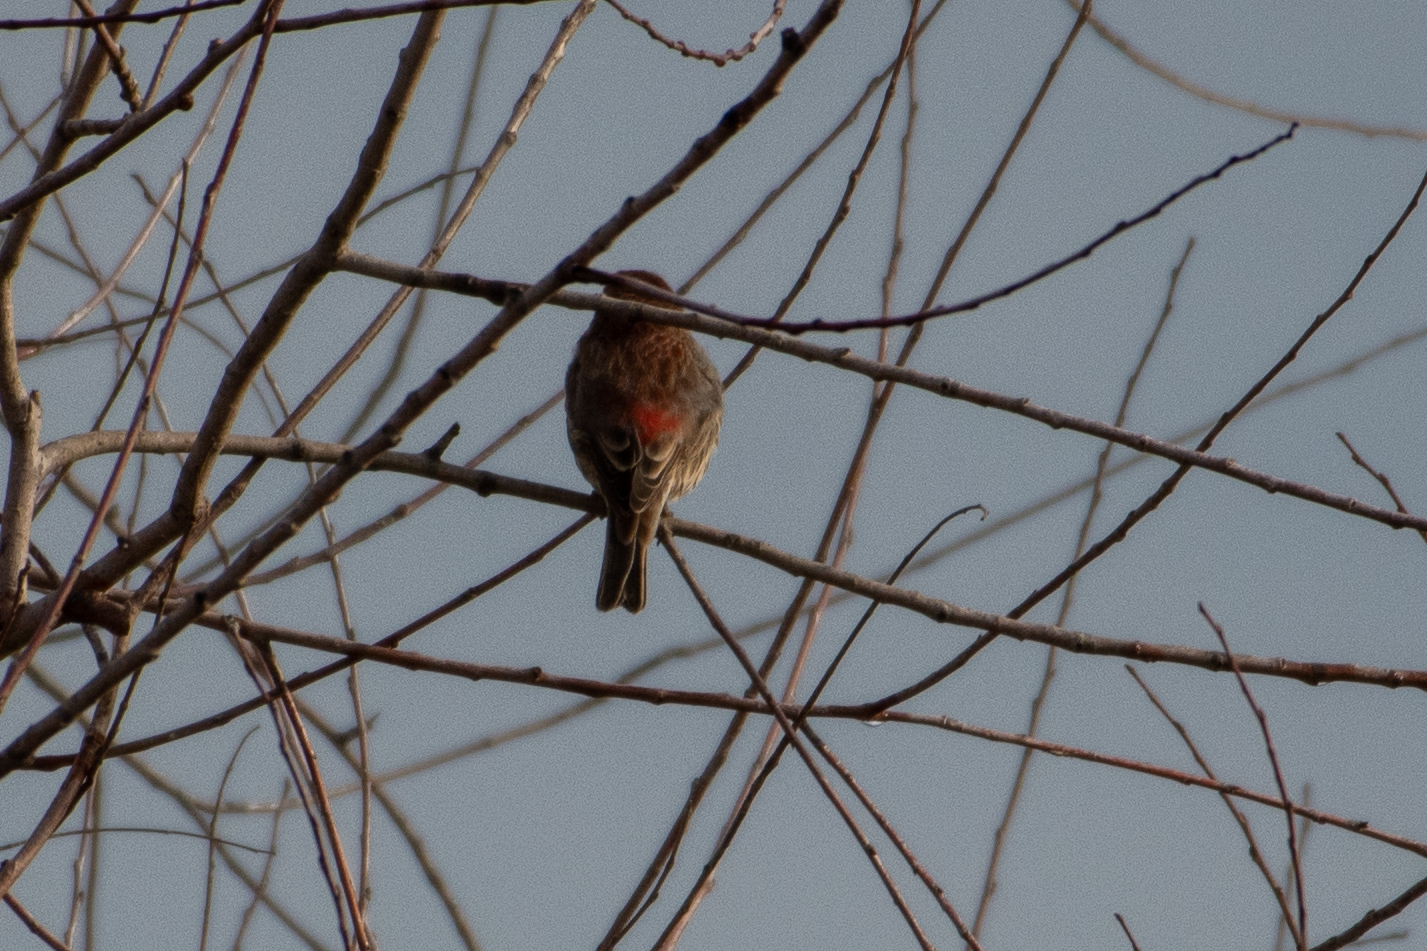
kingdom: Animalia
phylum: Chordata
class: Aves
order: Passeriformes
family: Fringillidae
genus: Haemorhous
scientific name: Haemorhous mexicanus
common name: House finch
